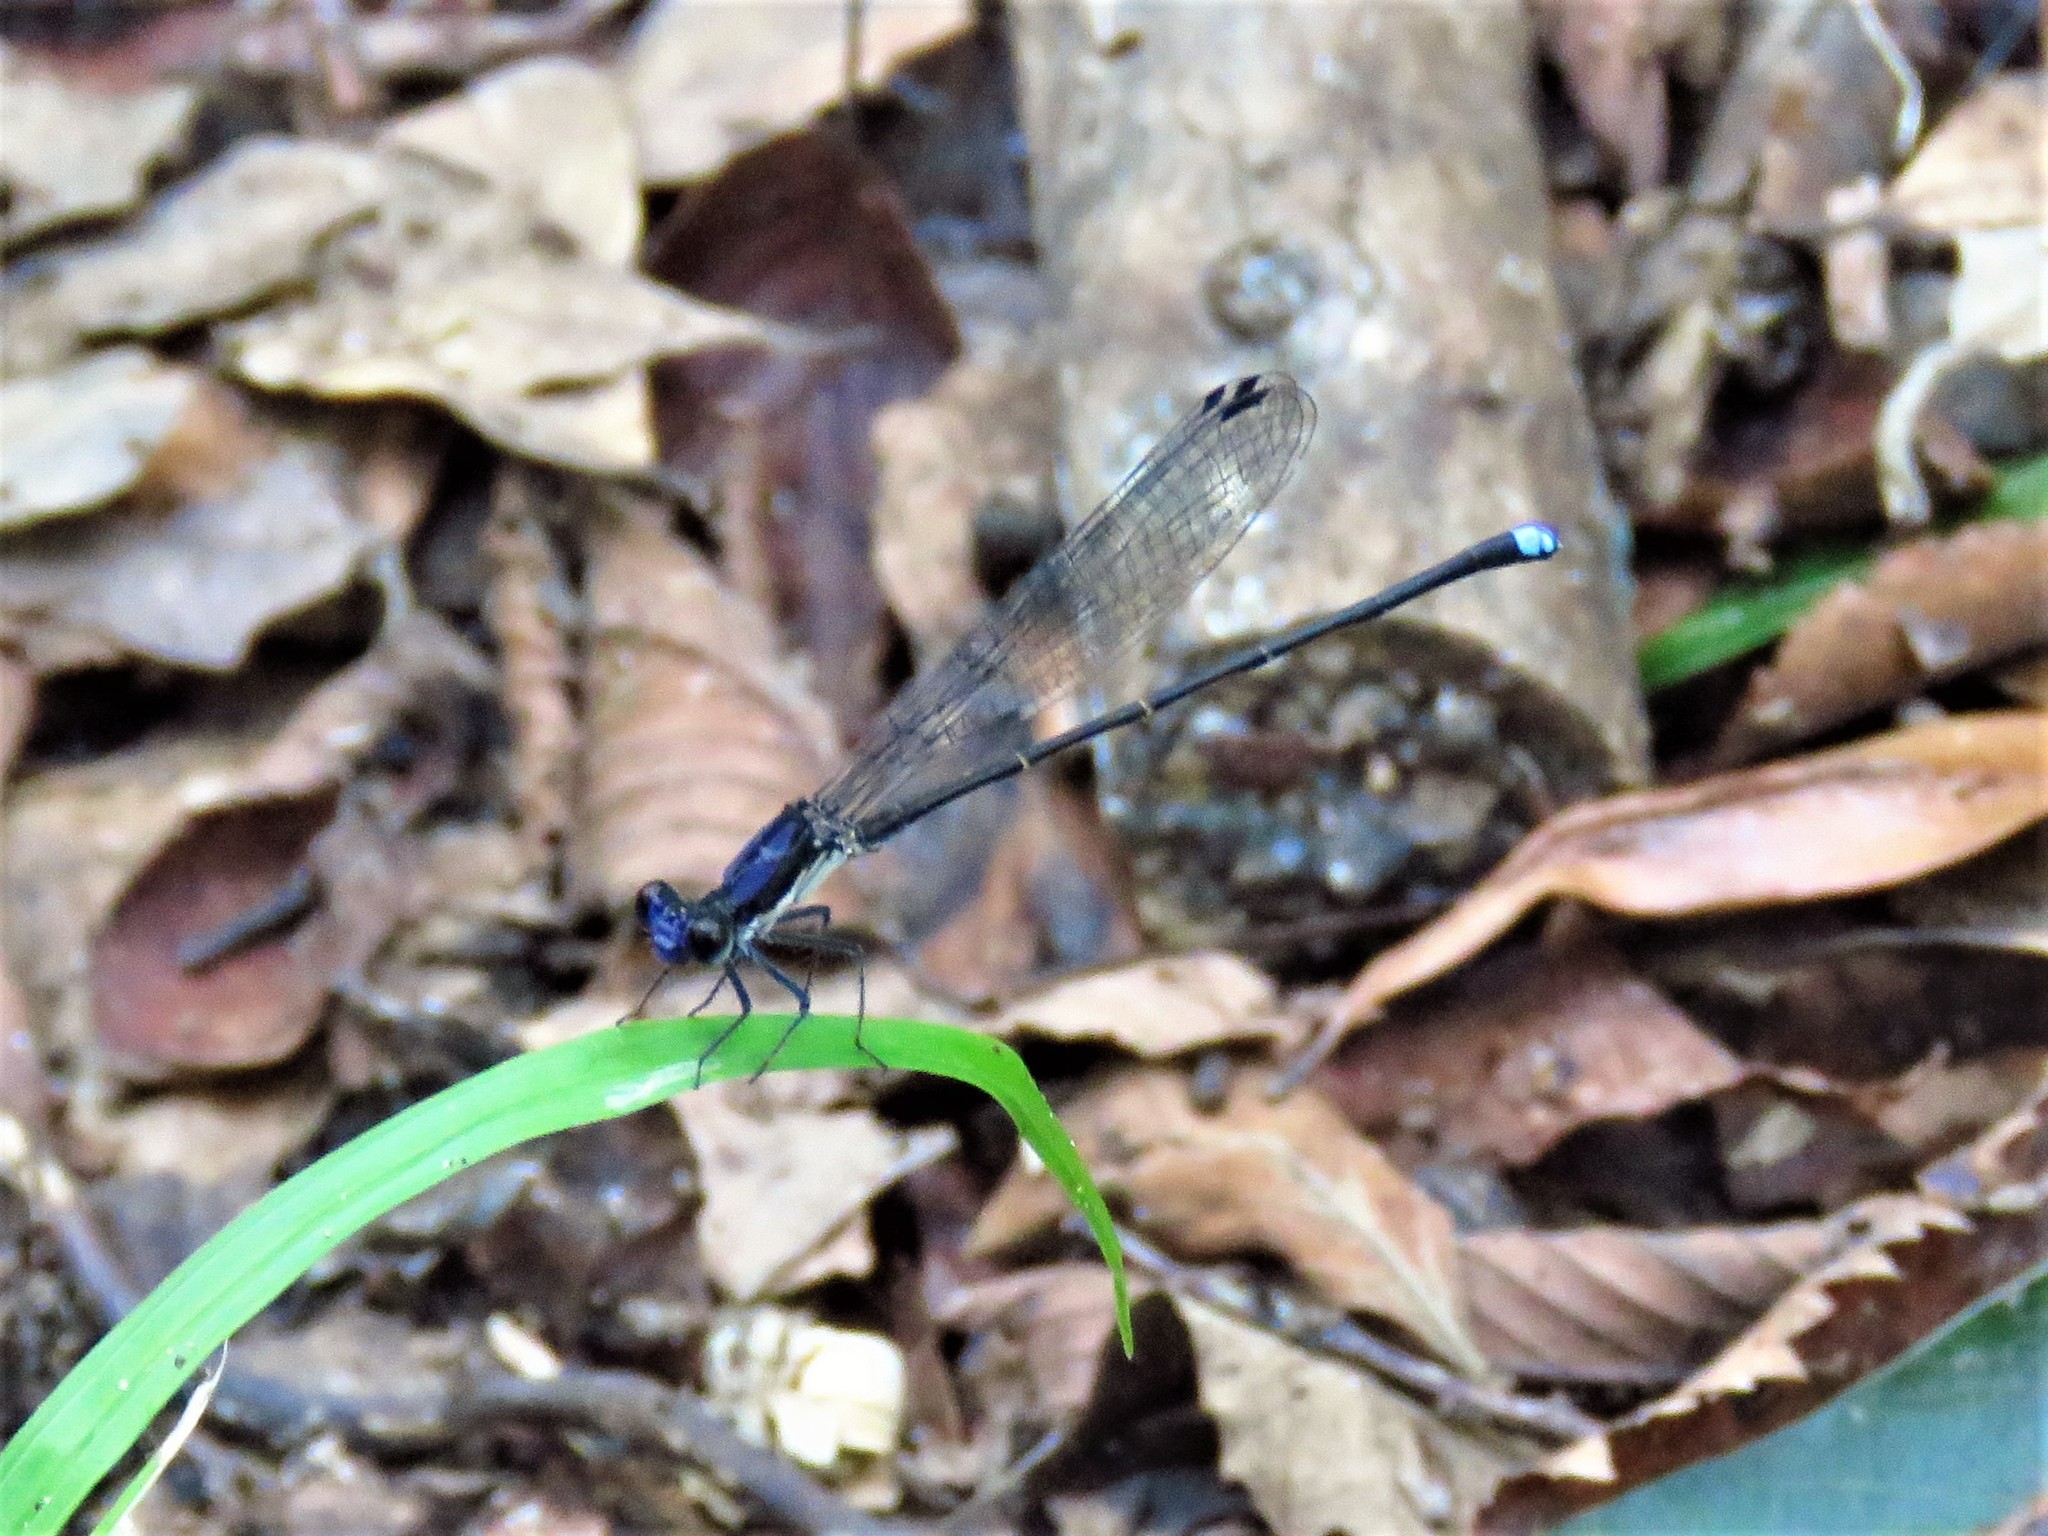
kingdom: Animalia
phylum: Arthropoda
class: Insecta
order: Odonata
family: Coenagrionidae
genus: Argia
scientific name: Argia tibialis
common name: Blue-tipped dancer
